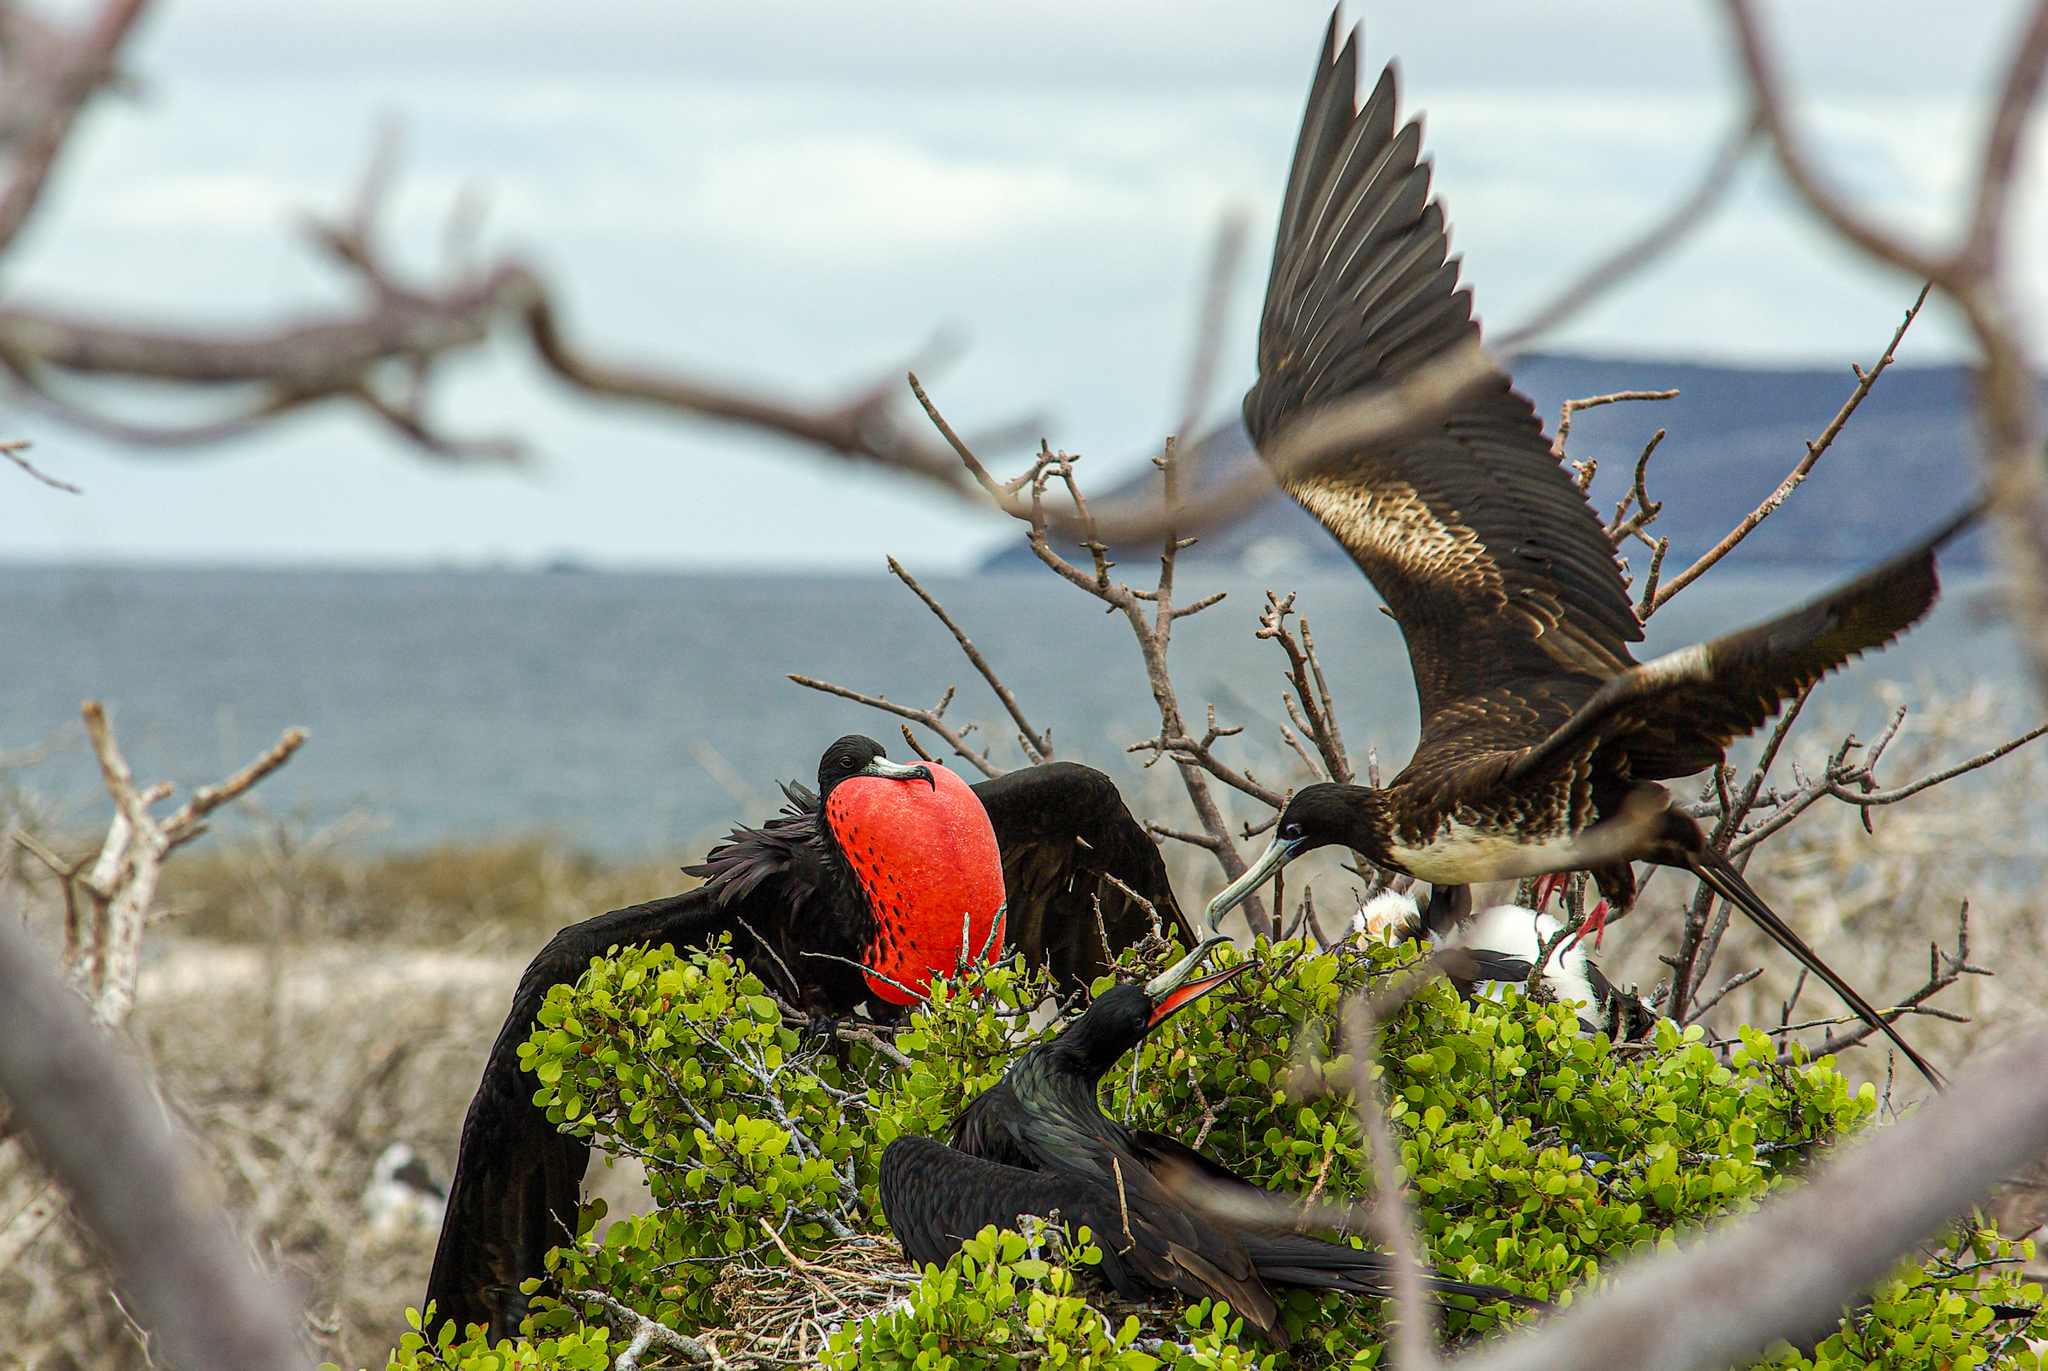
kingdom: Animalia
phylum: Chordata
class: Aves
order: Suliformes
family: Fregatidae
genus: Fregata
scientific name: Fregata magnificens
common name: Magnificent frigatebird
